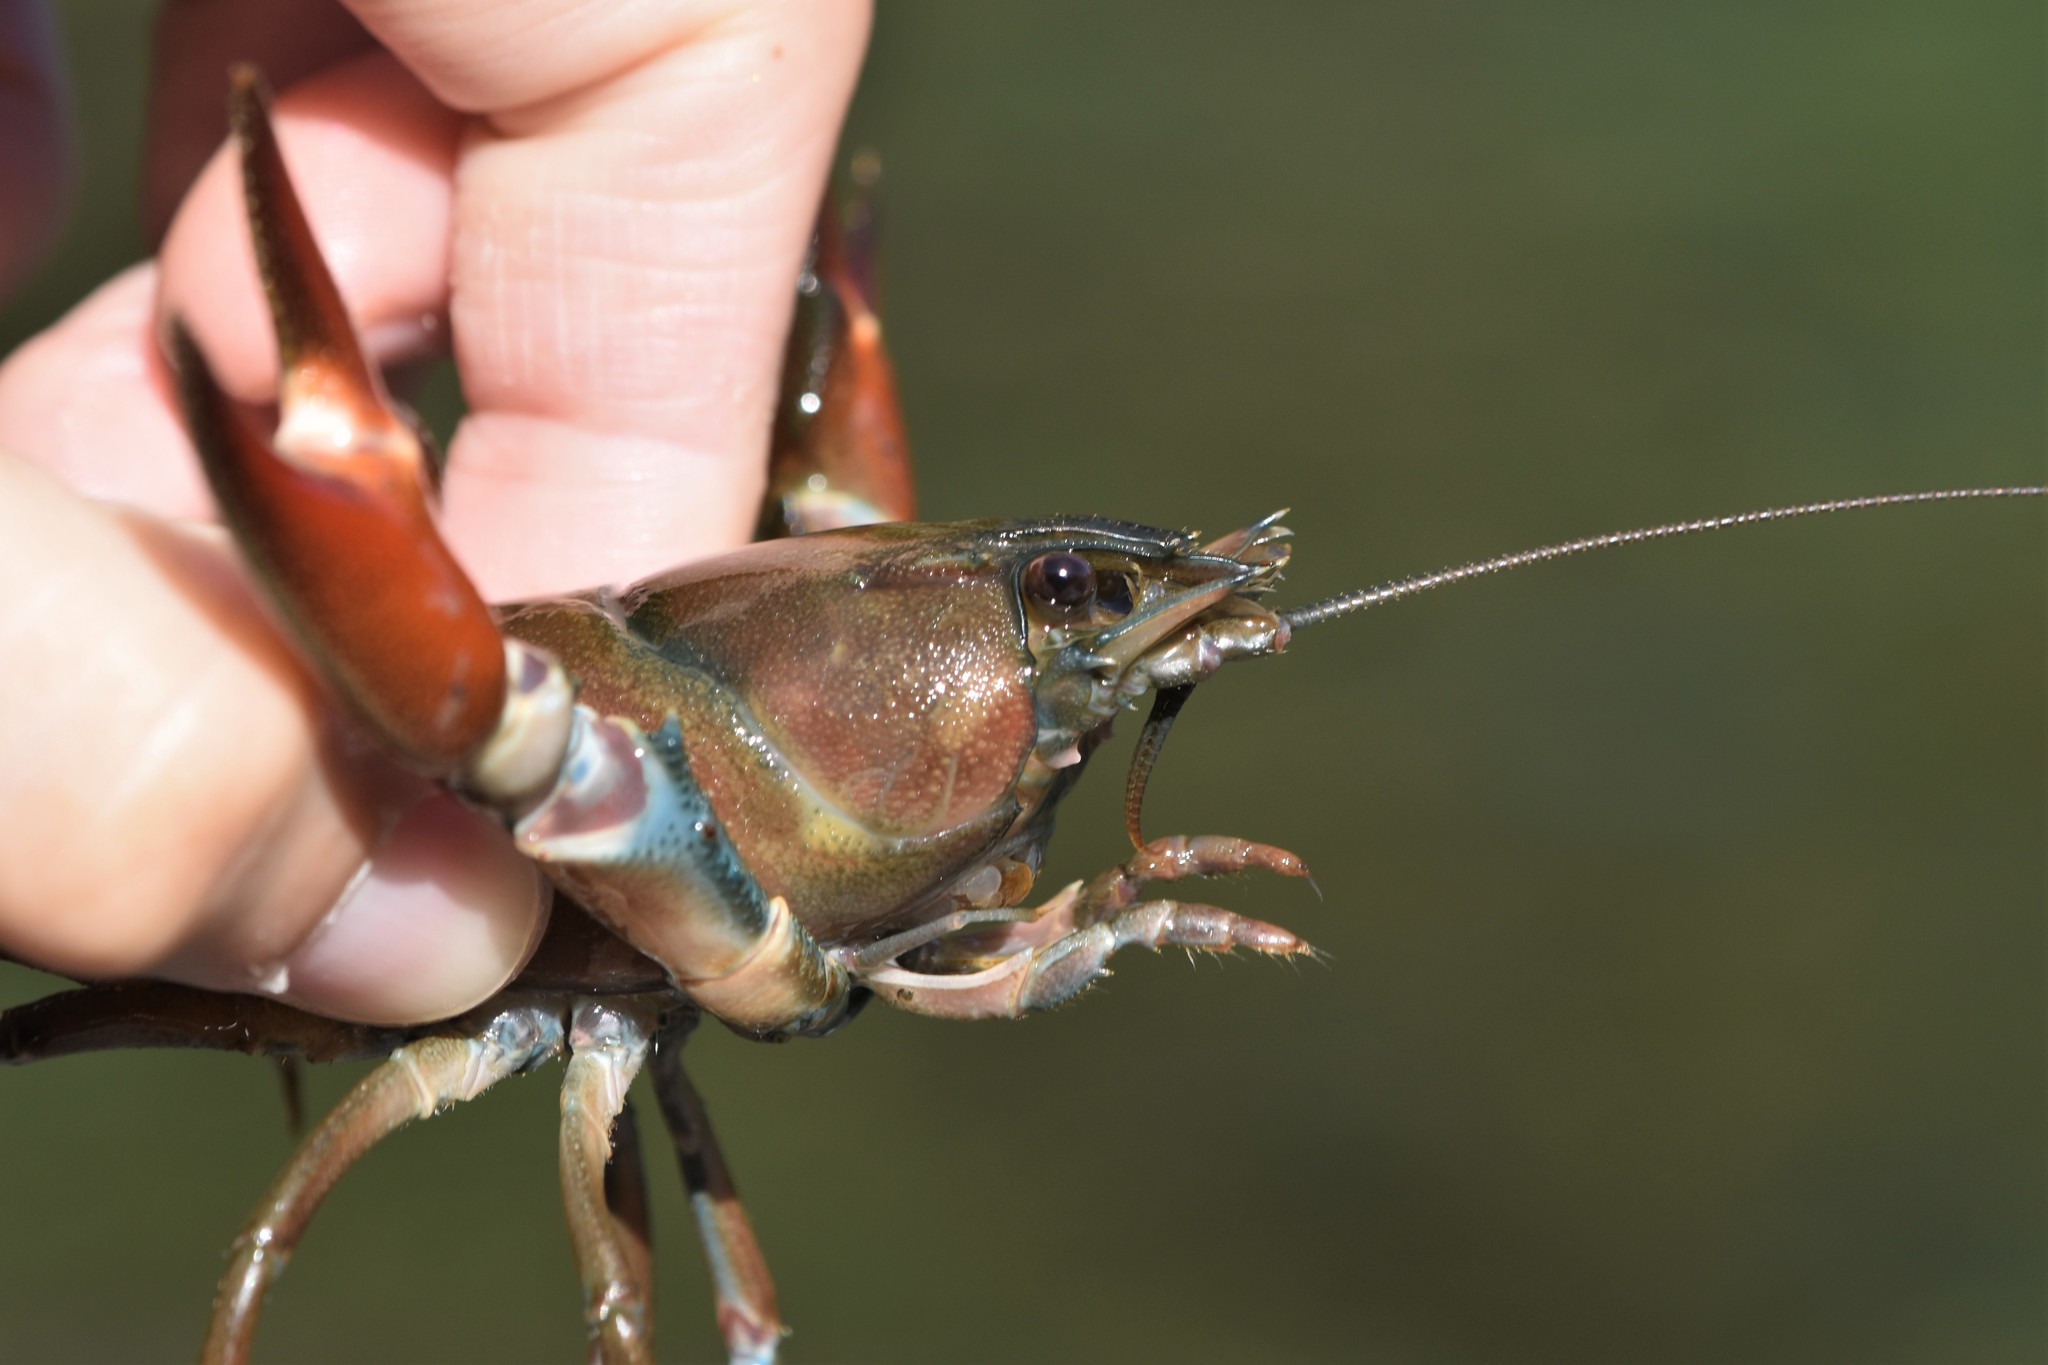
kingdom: Animalia
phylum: Arthropoda
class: Malacostraca
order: Decapoda
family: Astacidae
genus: Pacifastacus
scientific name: Pacifastacus leniusculus
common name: Signal crayfish
